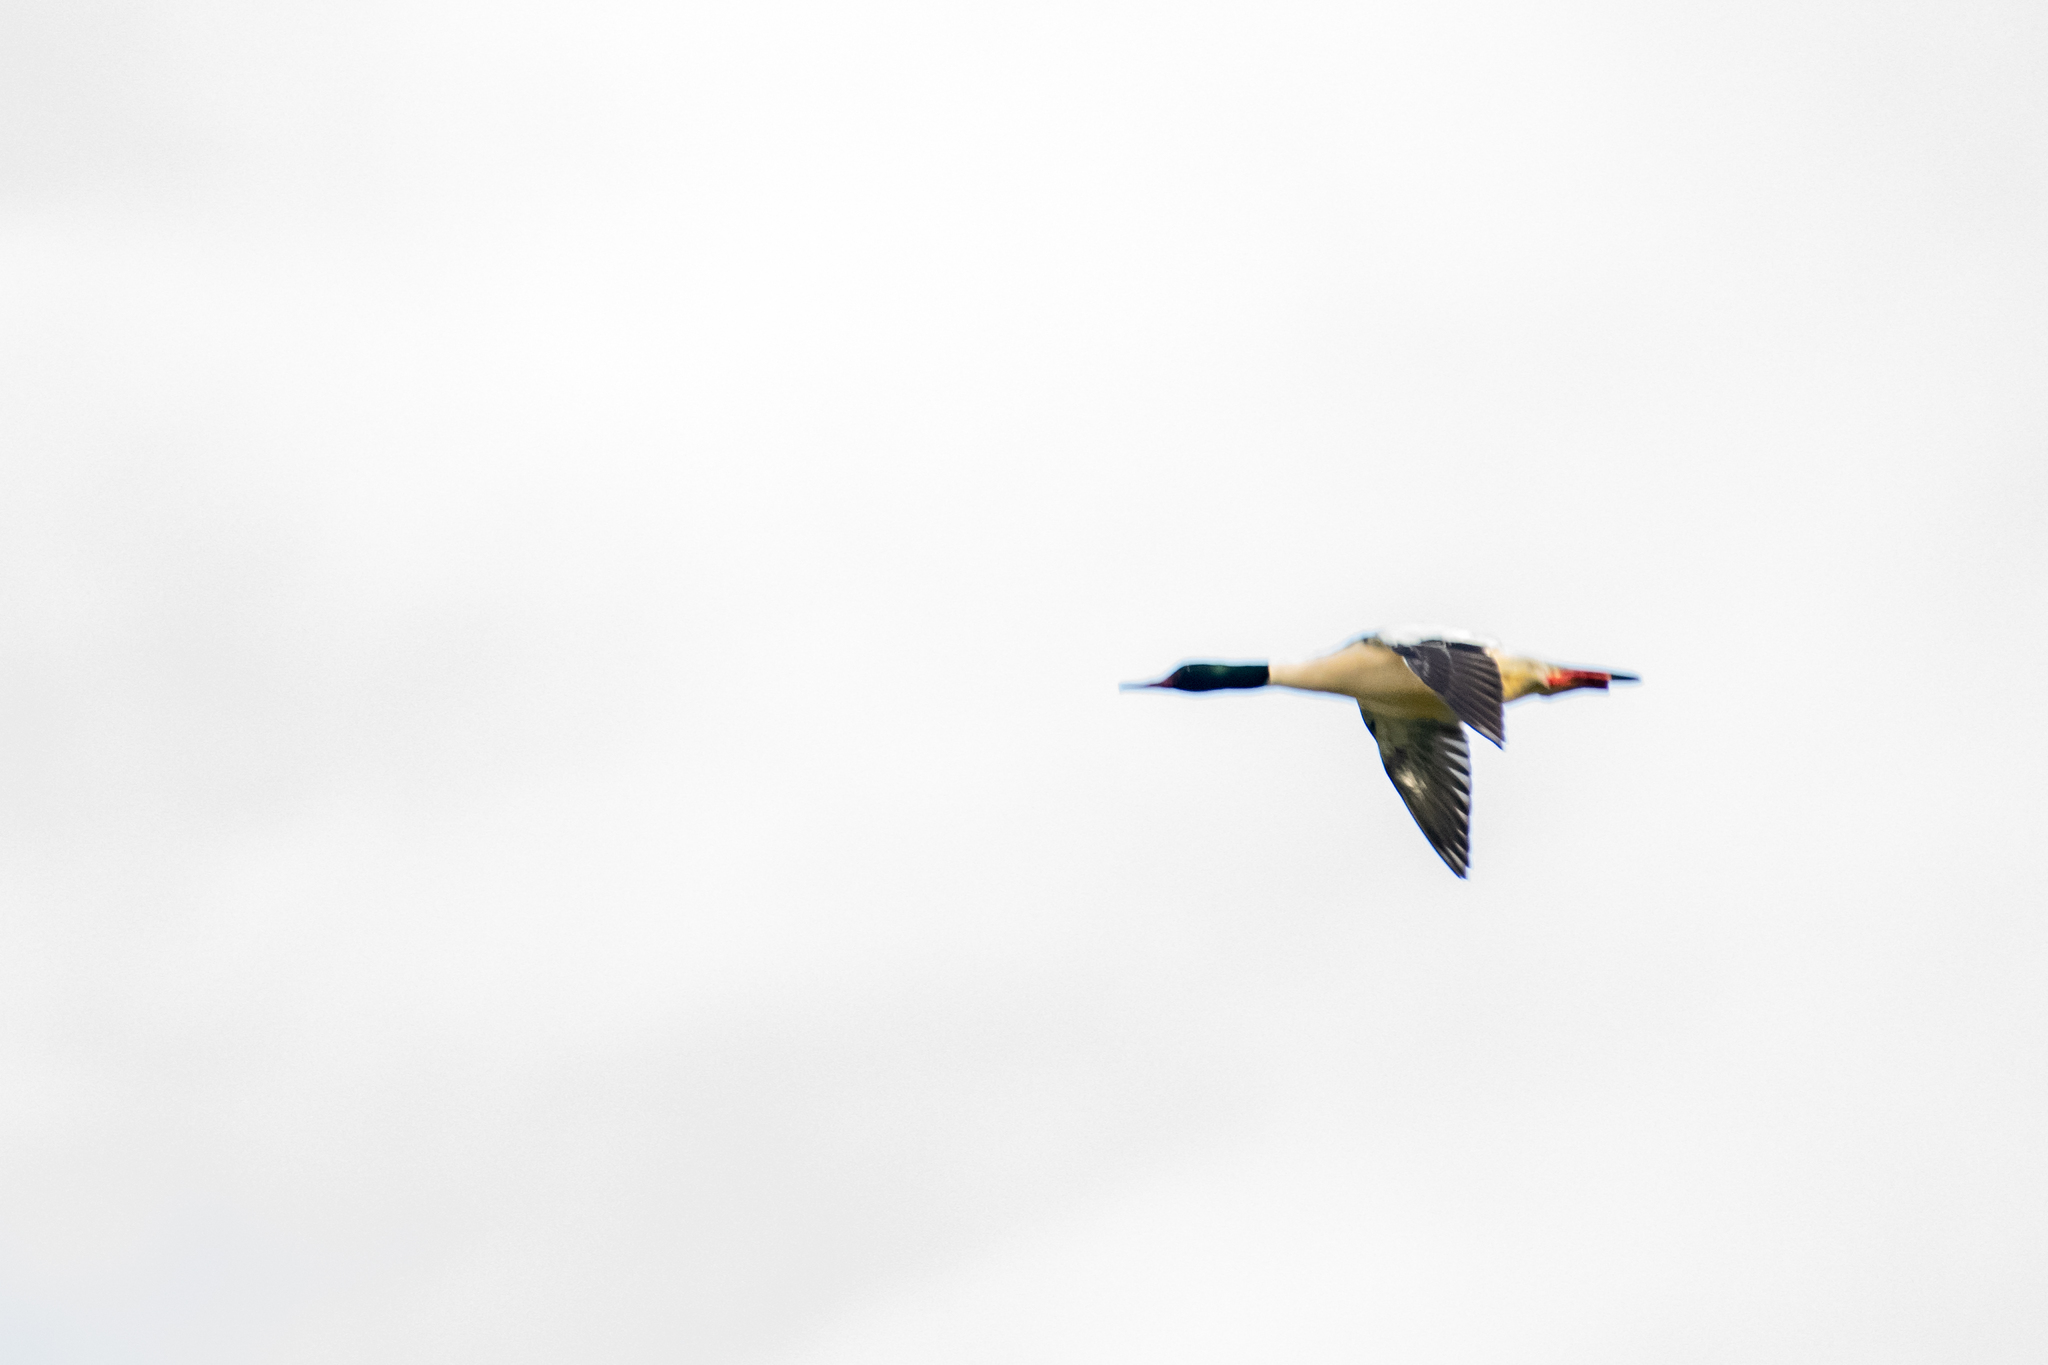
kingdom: Animalia
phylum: Chordata
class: Aves
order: Anseriformes
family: Anatidae
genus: Mergus
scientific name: Mergus merganser
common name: Common merganser
